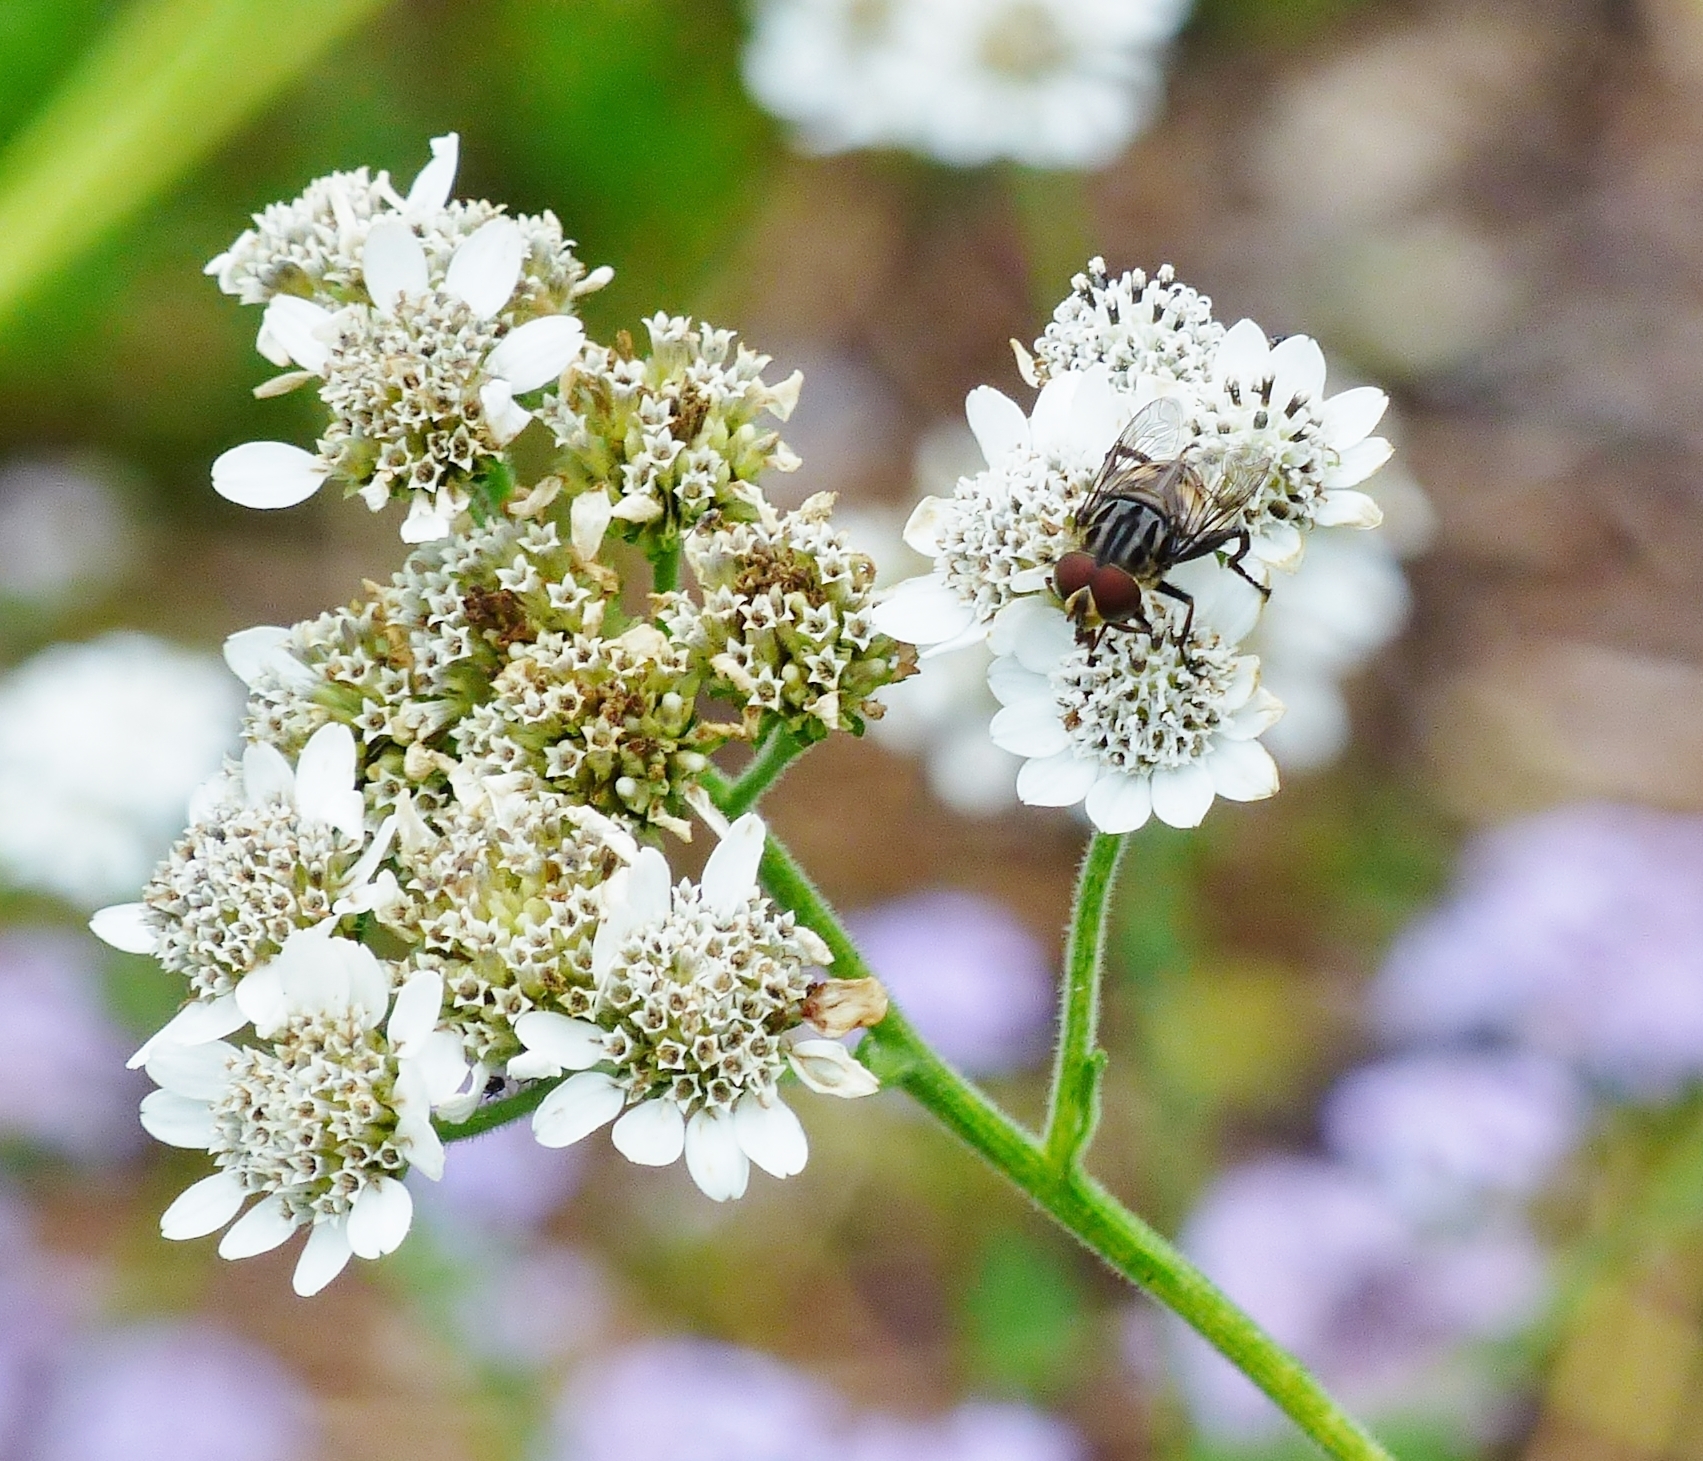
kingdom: Plantae
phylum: Tracheophyta
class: Magnoliopsida
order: Asterales
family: Asteraceae
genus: Verbesina
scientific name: Verbesina microptera
